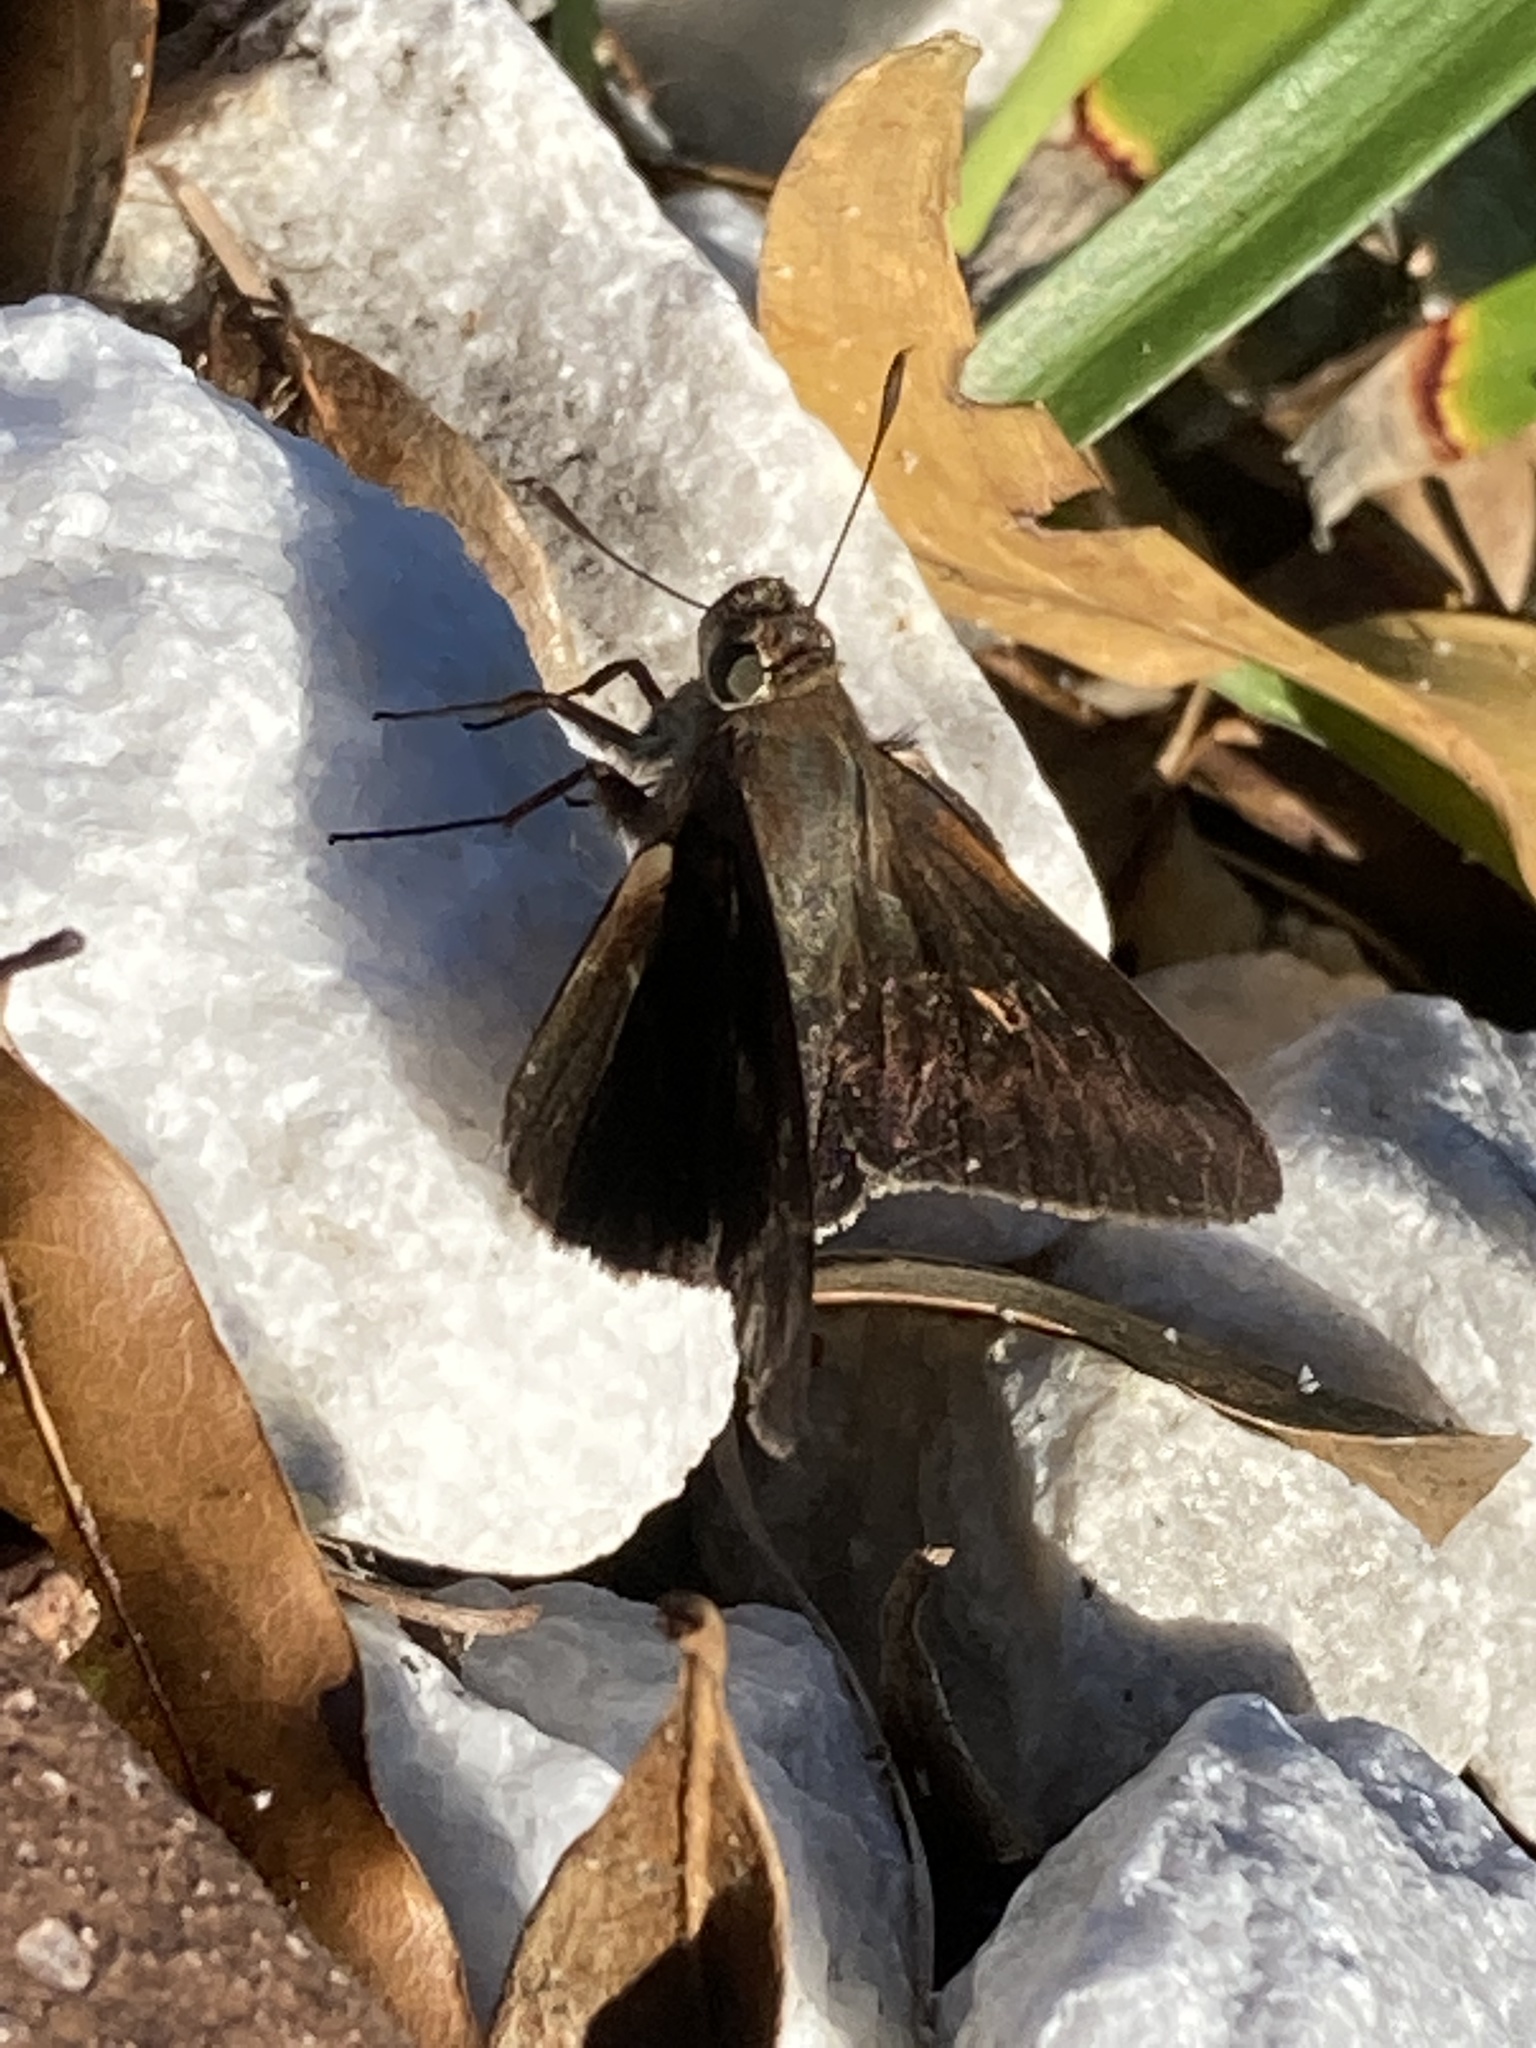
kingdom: Animalia
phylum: Arthropoda
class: Insecta
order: Lepidoptera
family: Hesperiidae
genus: Asbolis
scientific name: Asbolis capucinus
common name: Monk skipper
